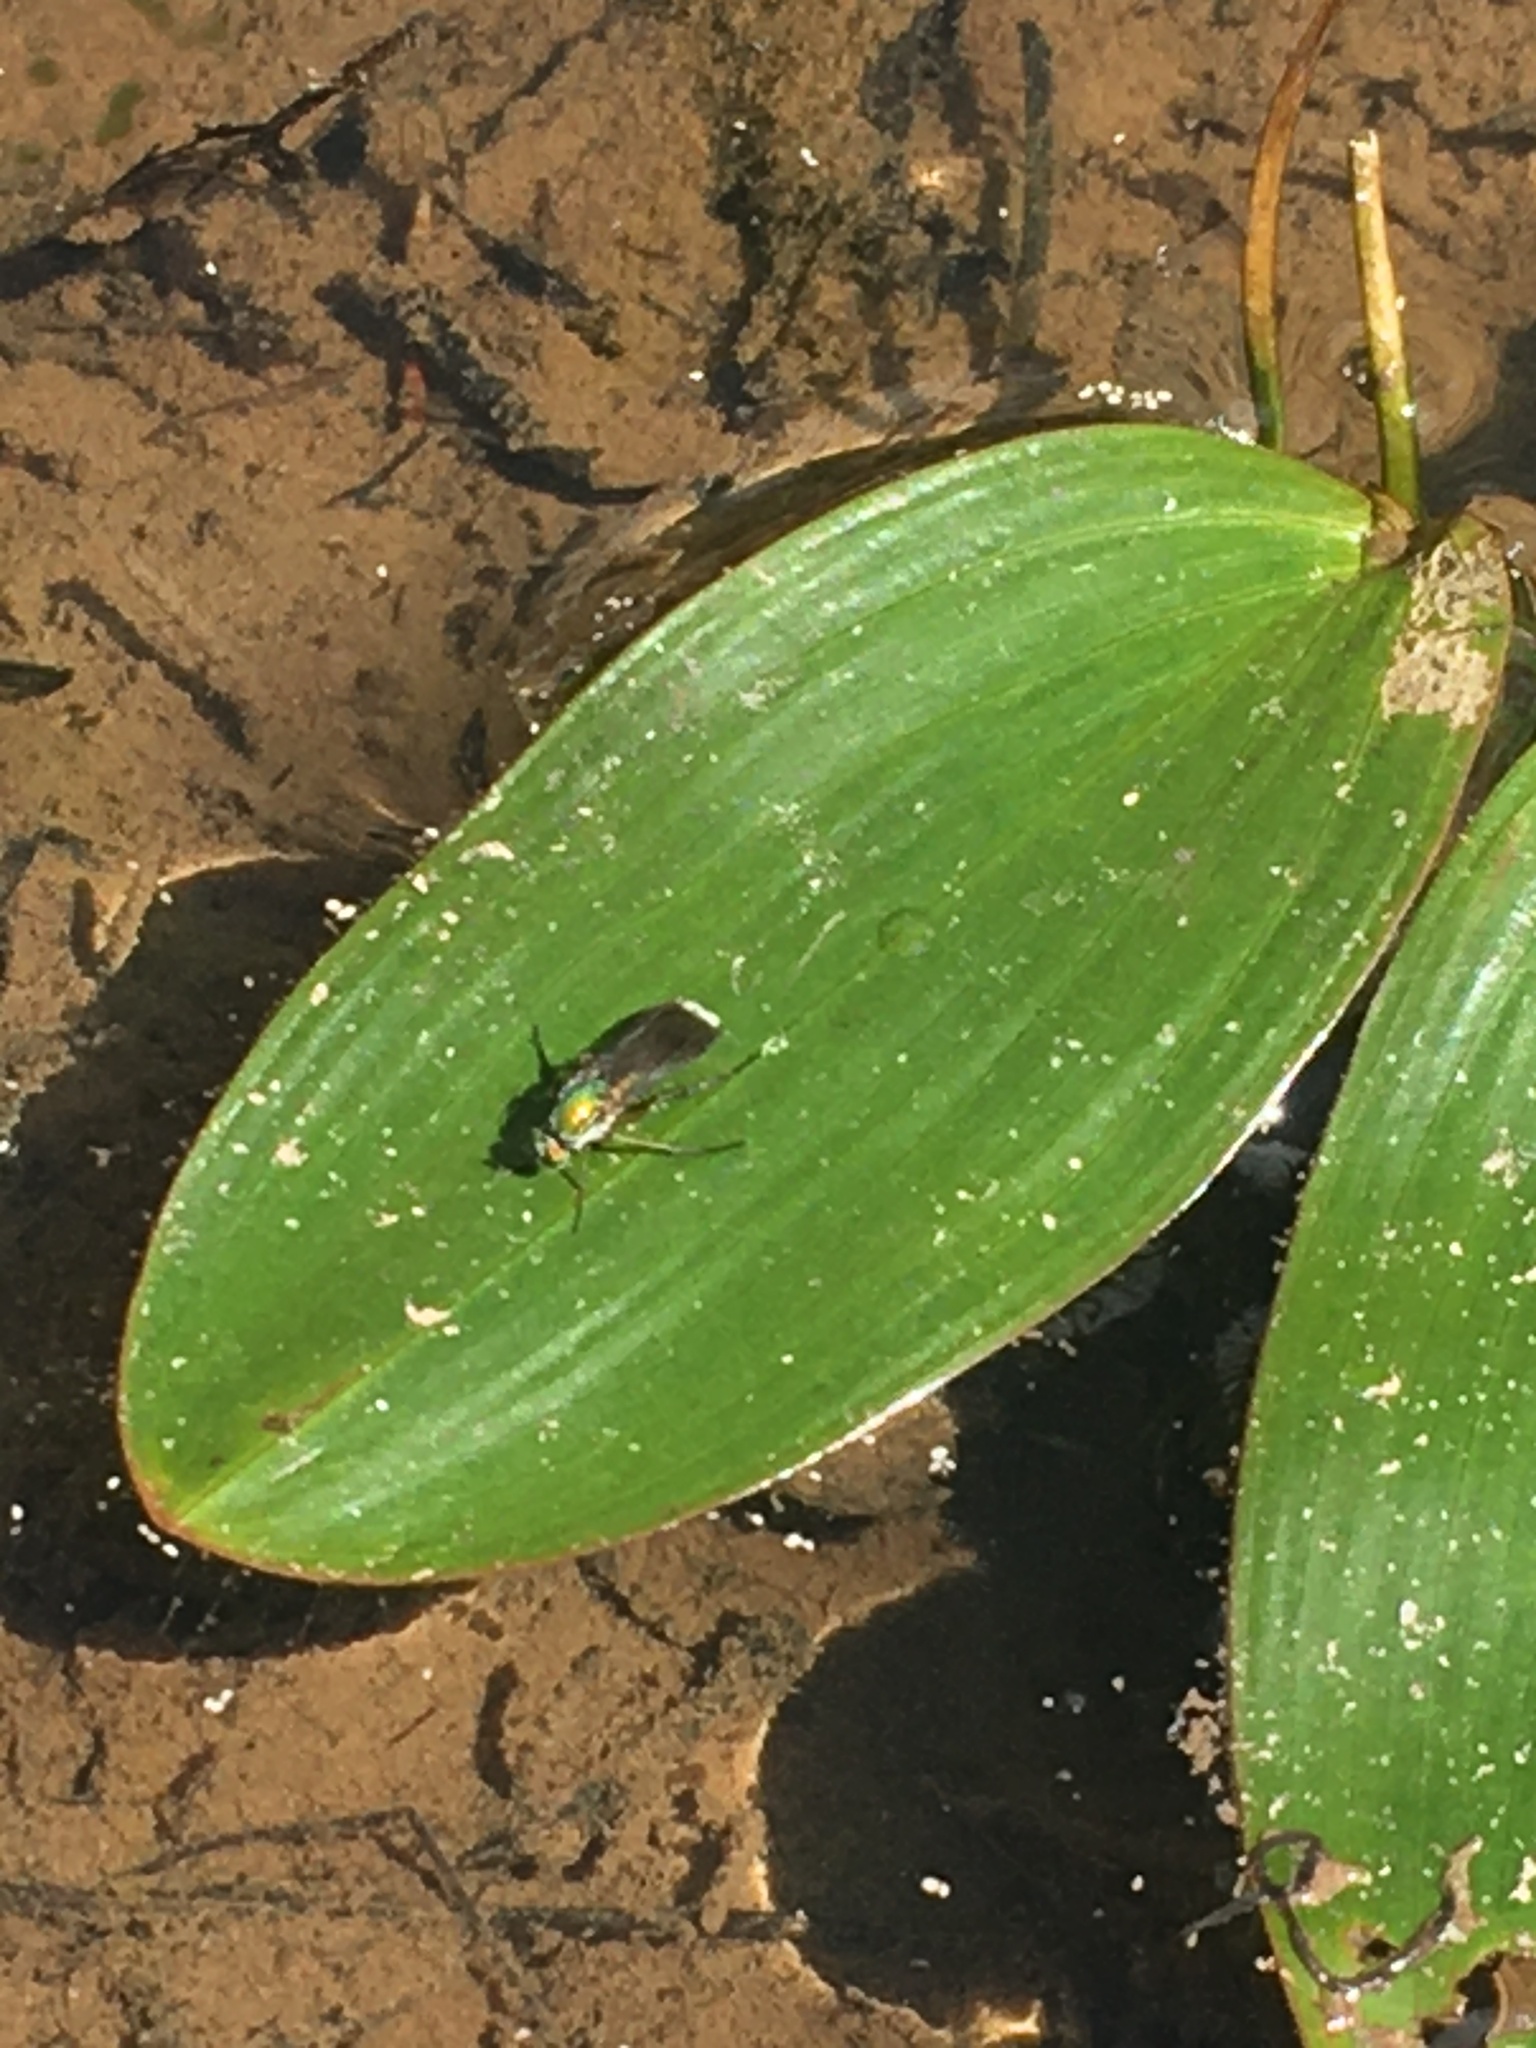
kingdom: Animalia
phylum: Arthropoda
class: Insecta
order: Diptera
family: Dolichopodidae
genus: Poecilobothrus
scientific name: Poecilobothrus nobilitatus
